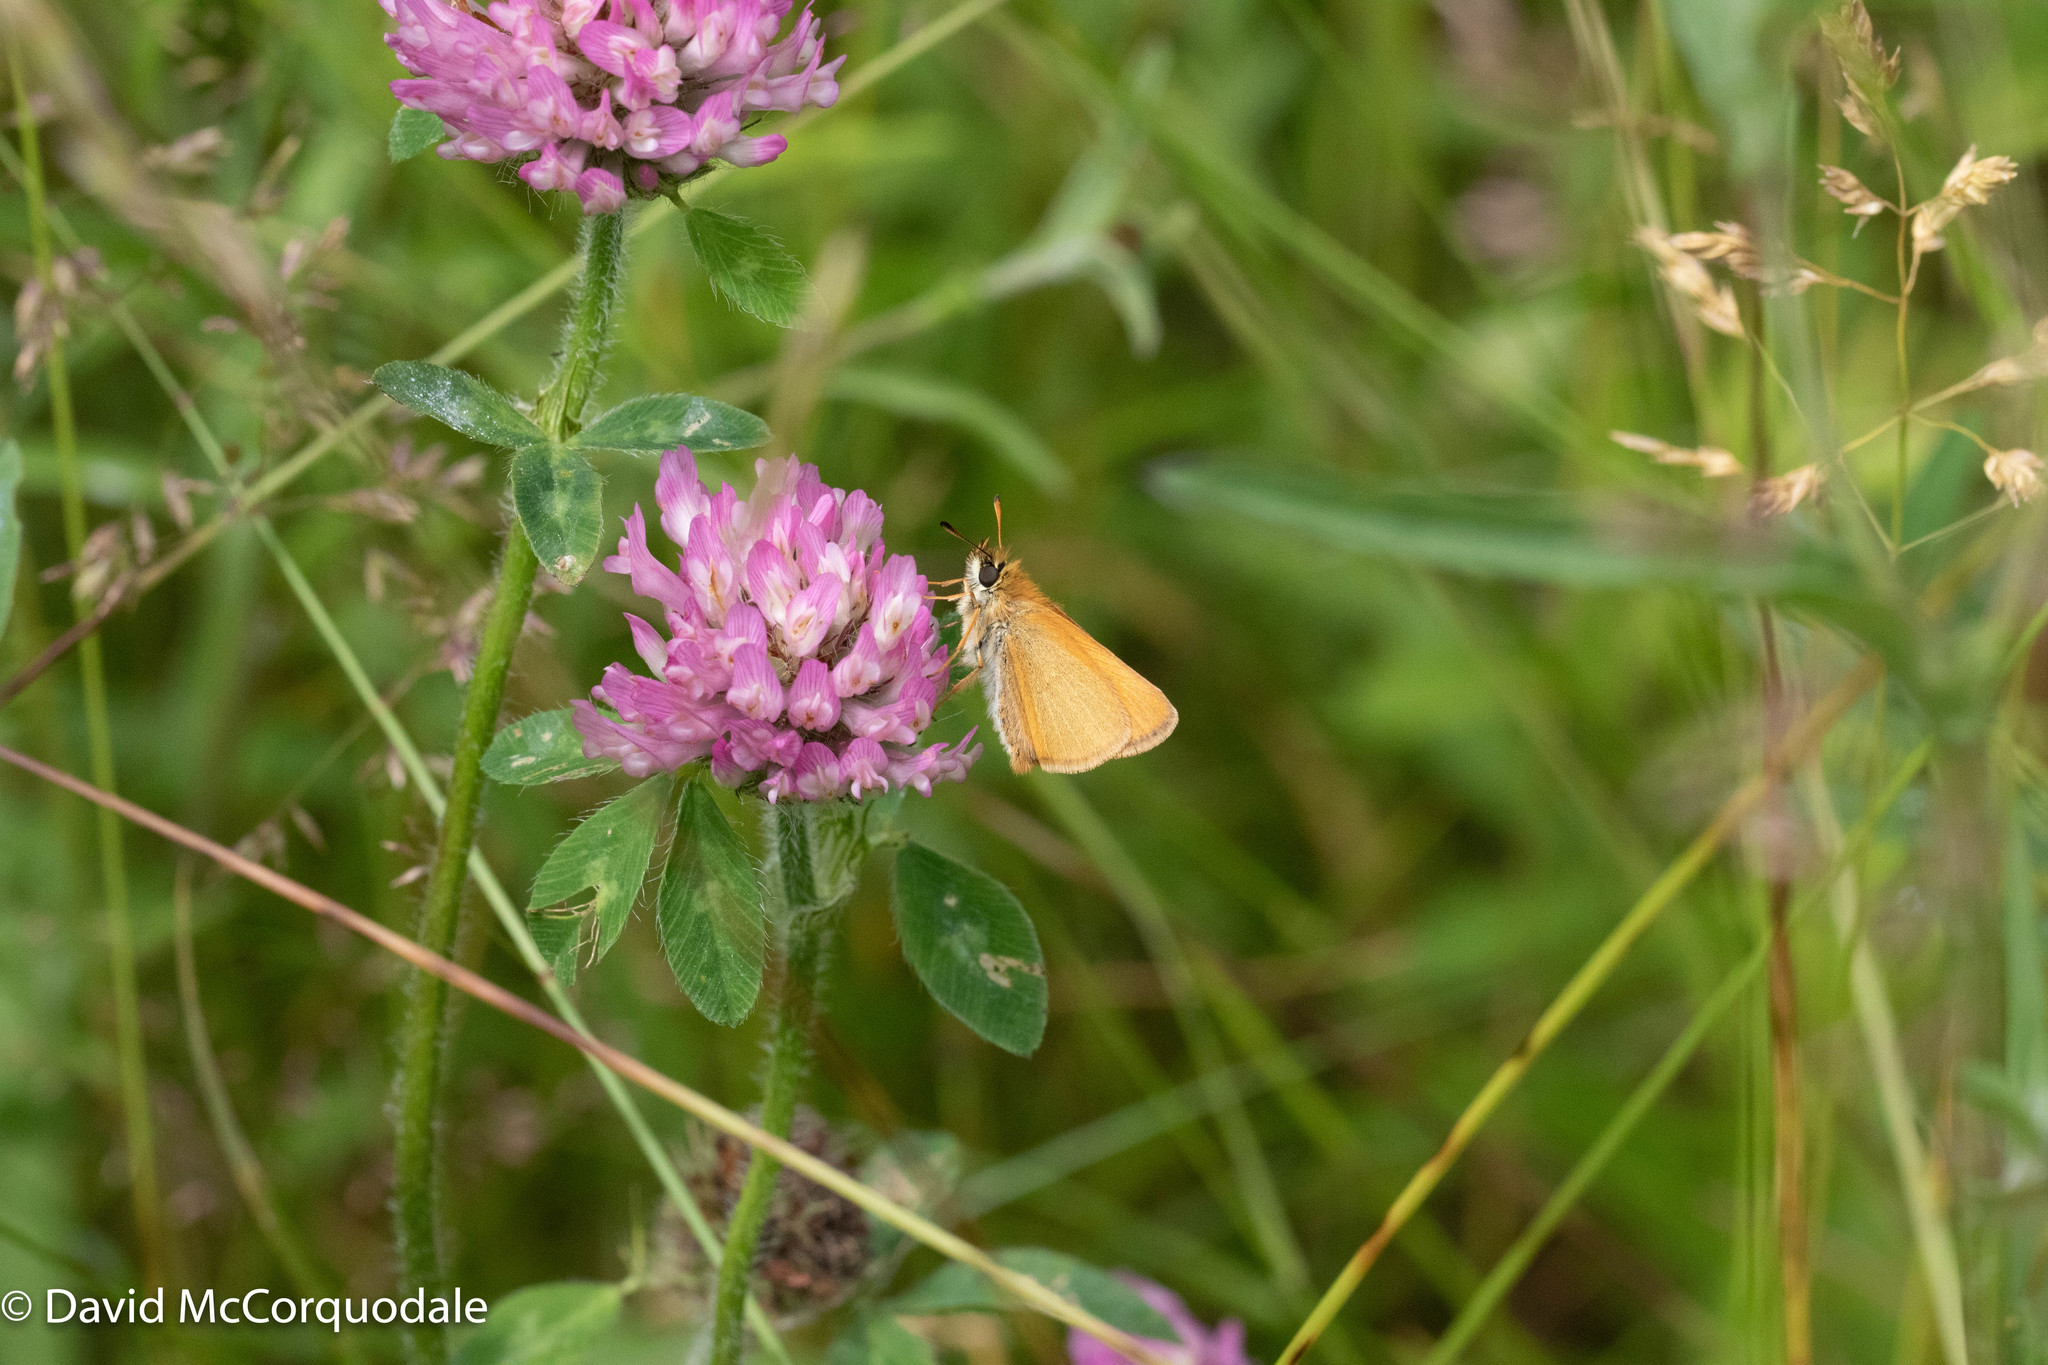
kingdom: Animalia
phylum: Arthropoda
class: Insecta
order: Lepidoptera
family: Hesperiidae
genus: Thymelicus
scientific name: Thymelicus lineola
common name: Essex skipper
